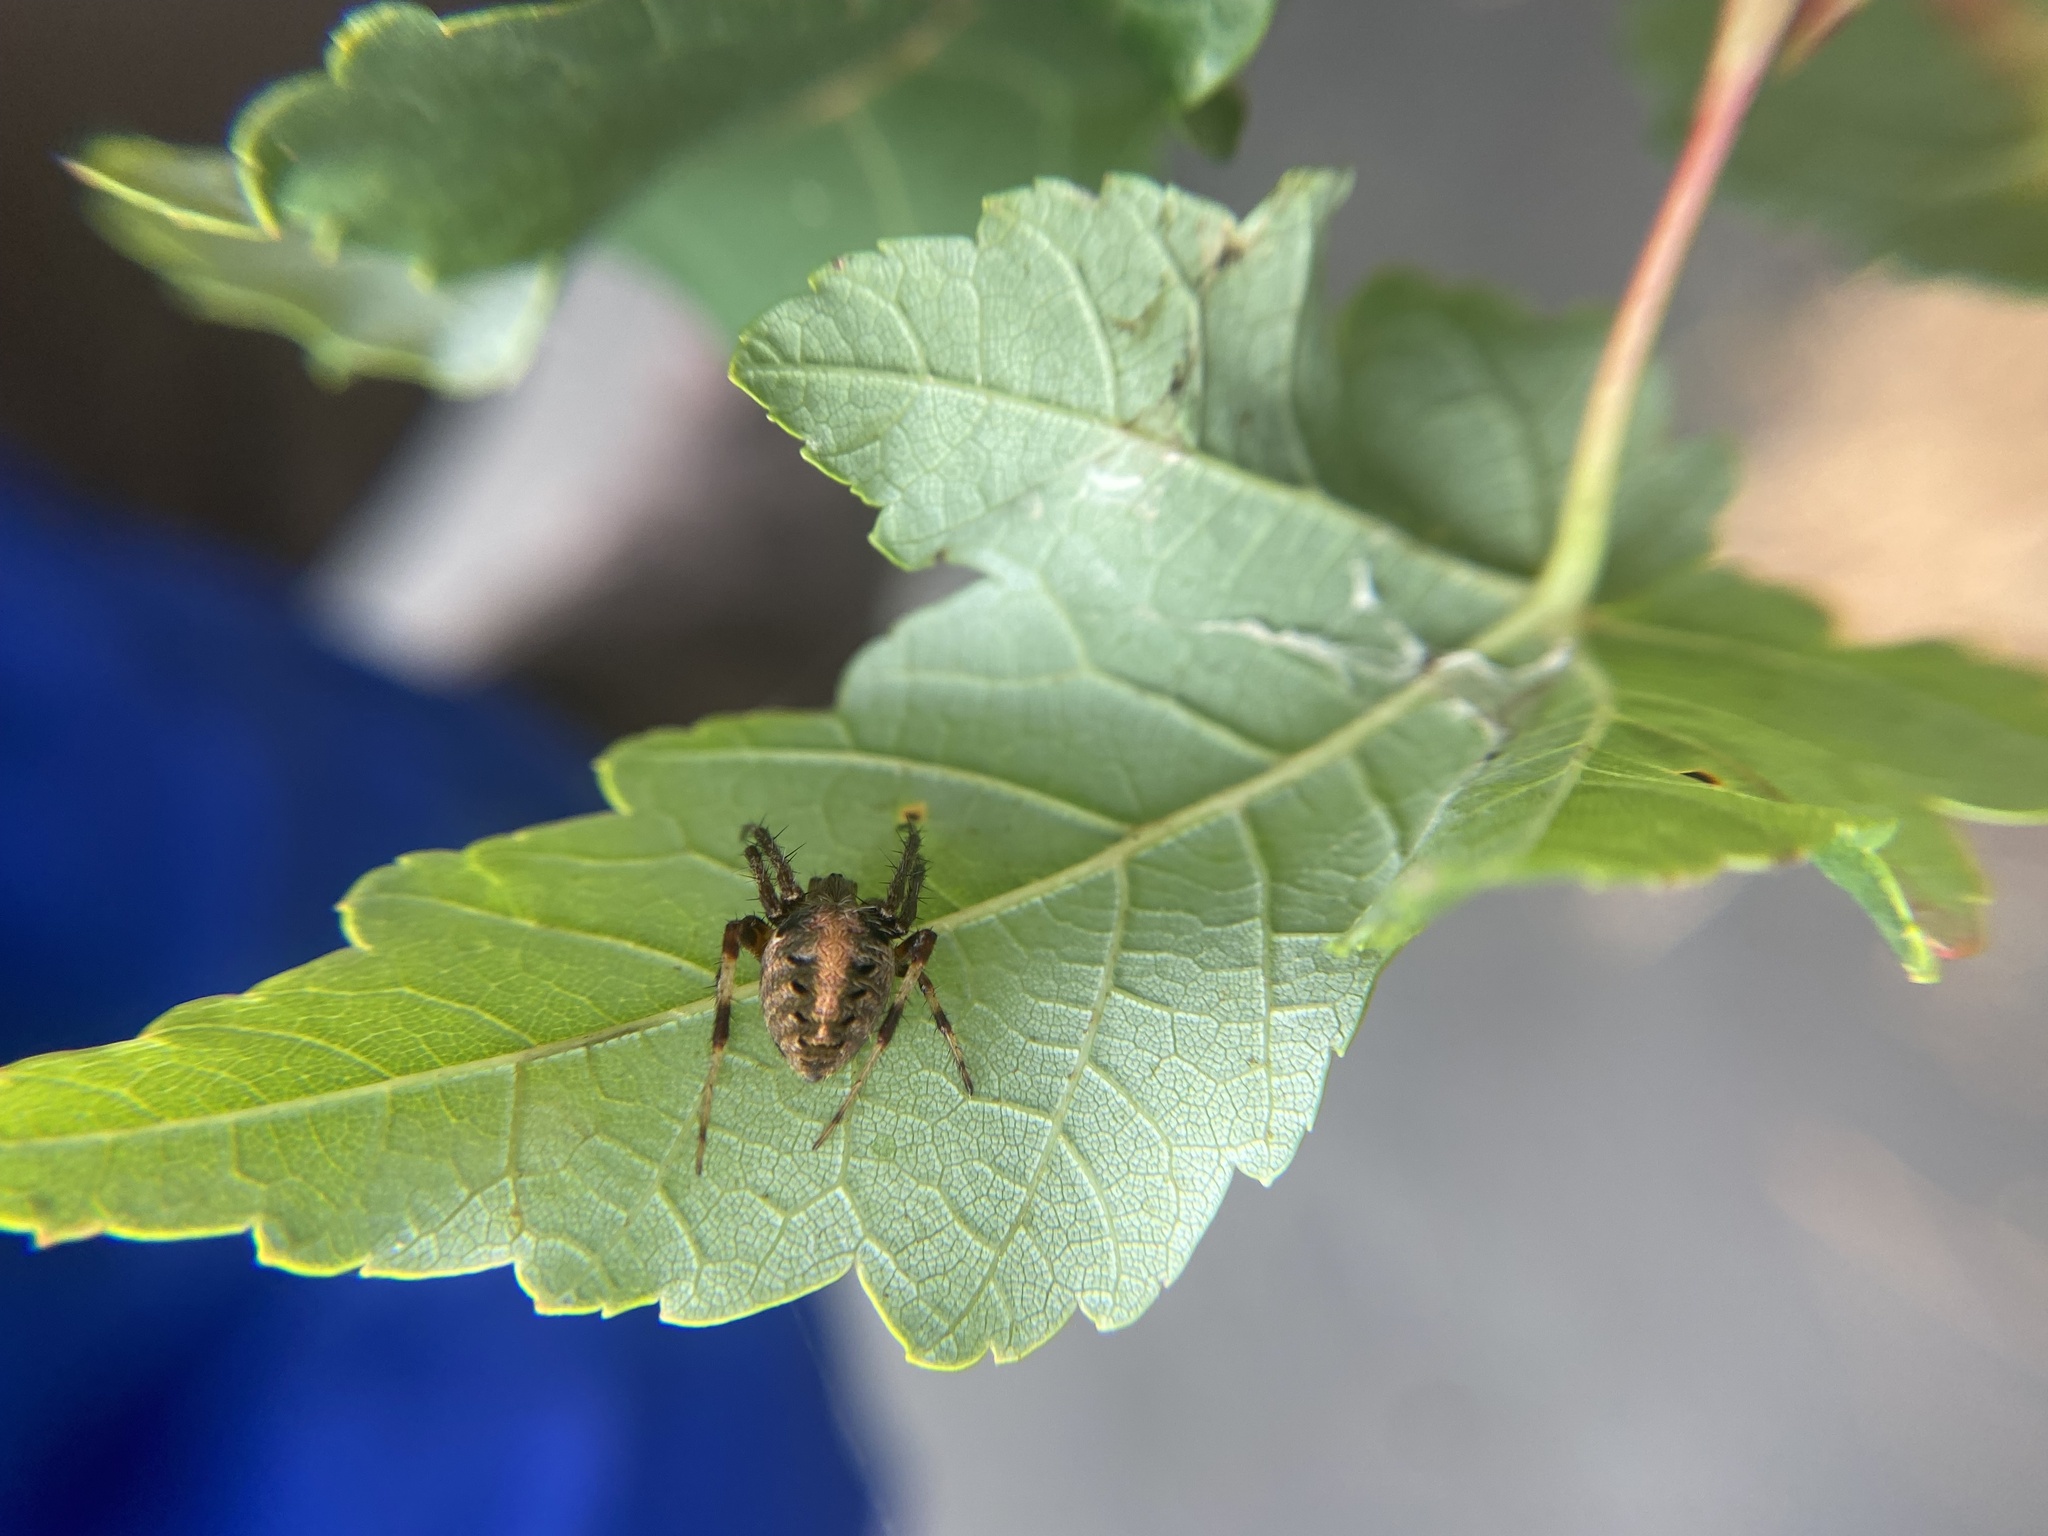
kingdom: Animalia
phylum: Arthropoda
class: Arachnida
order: Araneae
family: Araneidae
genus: Neoscona
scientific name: Neoscona arabesca
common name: Orb weavers
